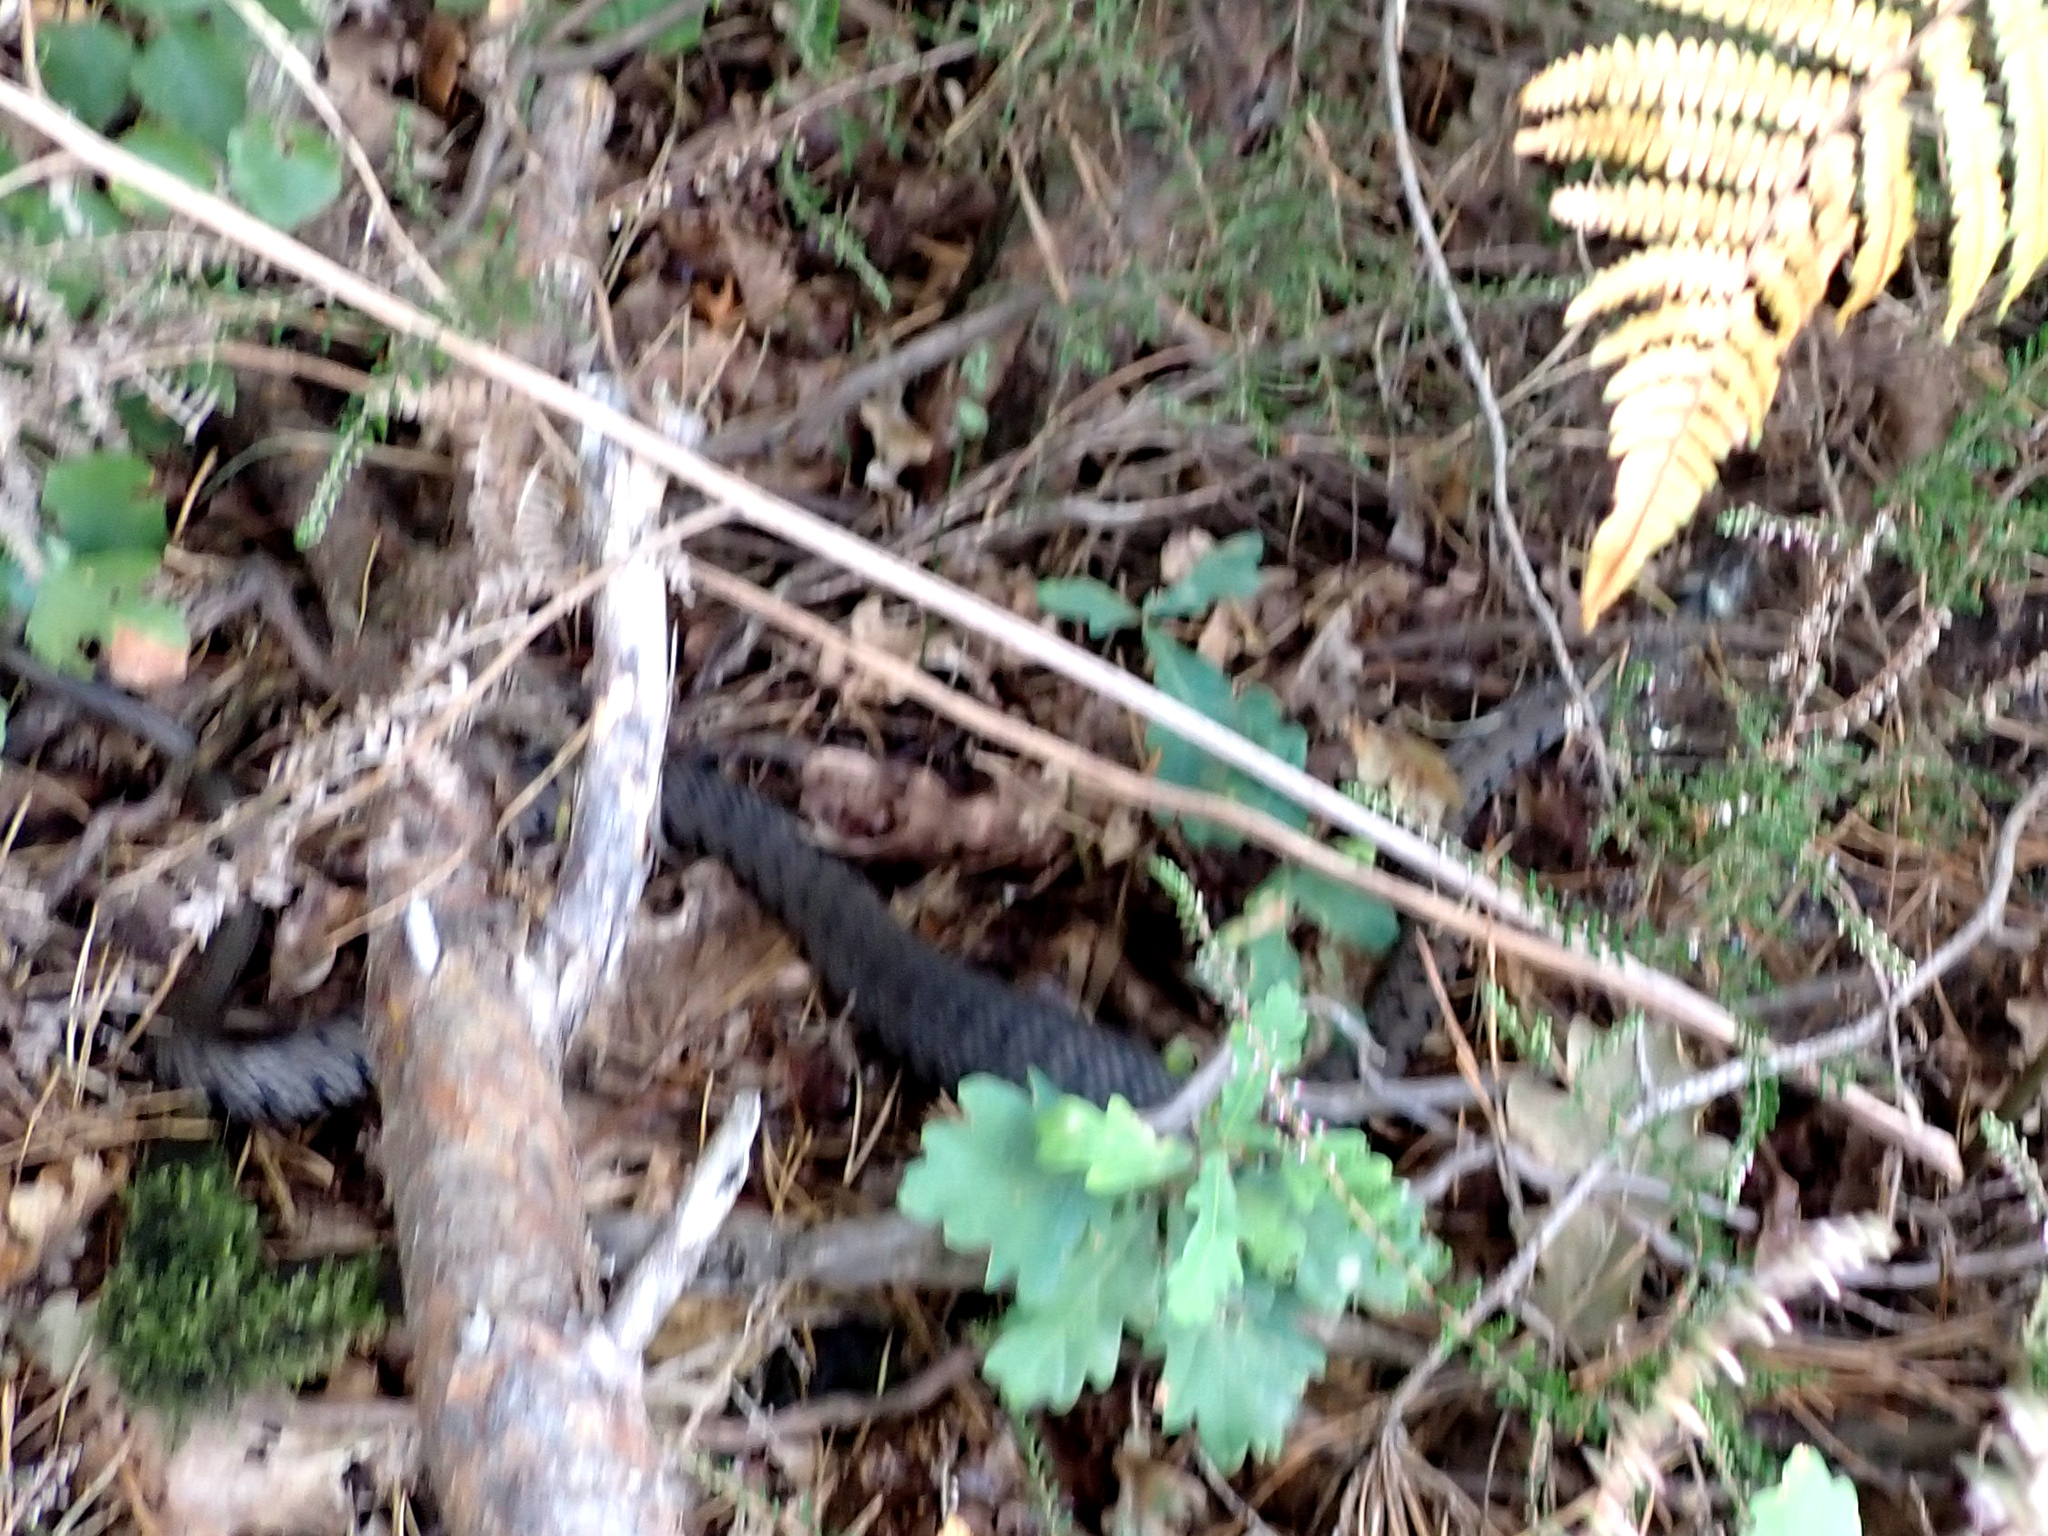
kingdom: Animalia
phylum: Chordata
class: Squamata
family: Colubridae
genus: Natrix
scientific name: Natrix helvetica
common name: Banded grass snake
